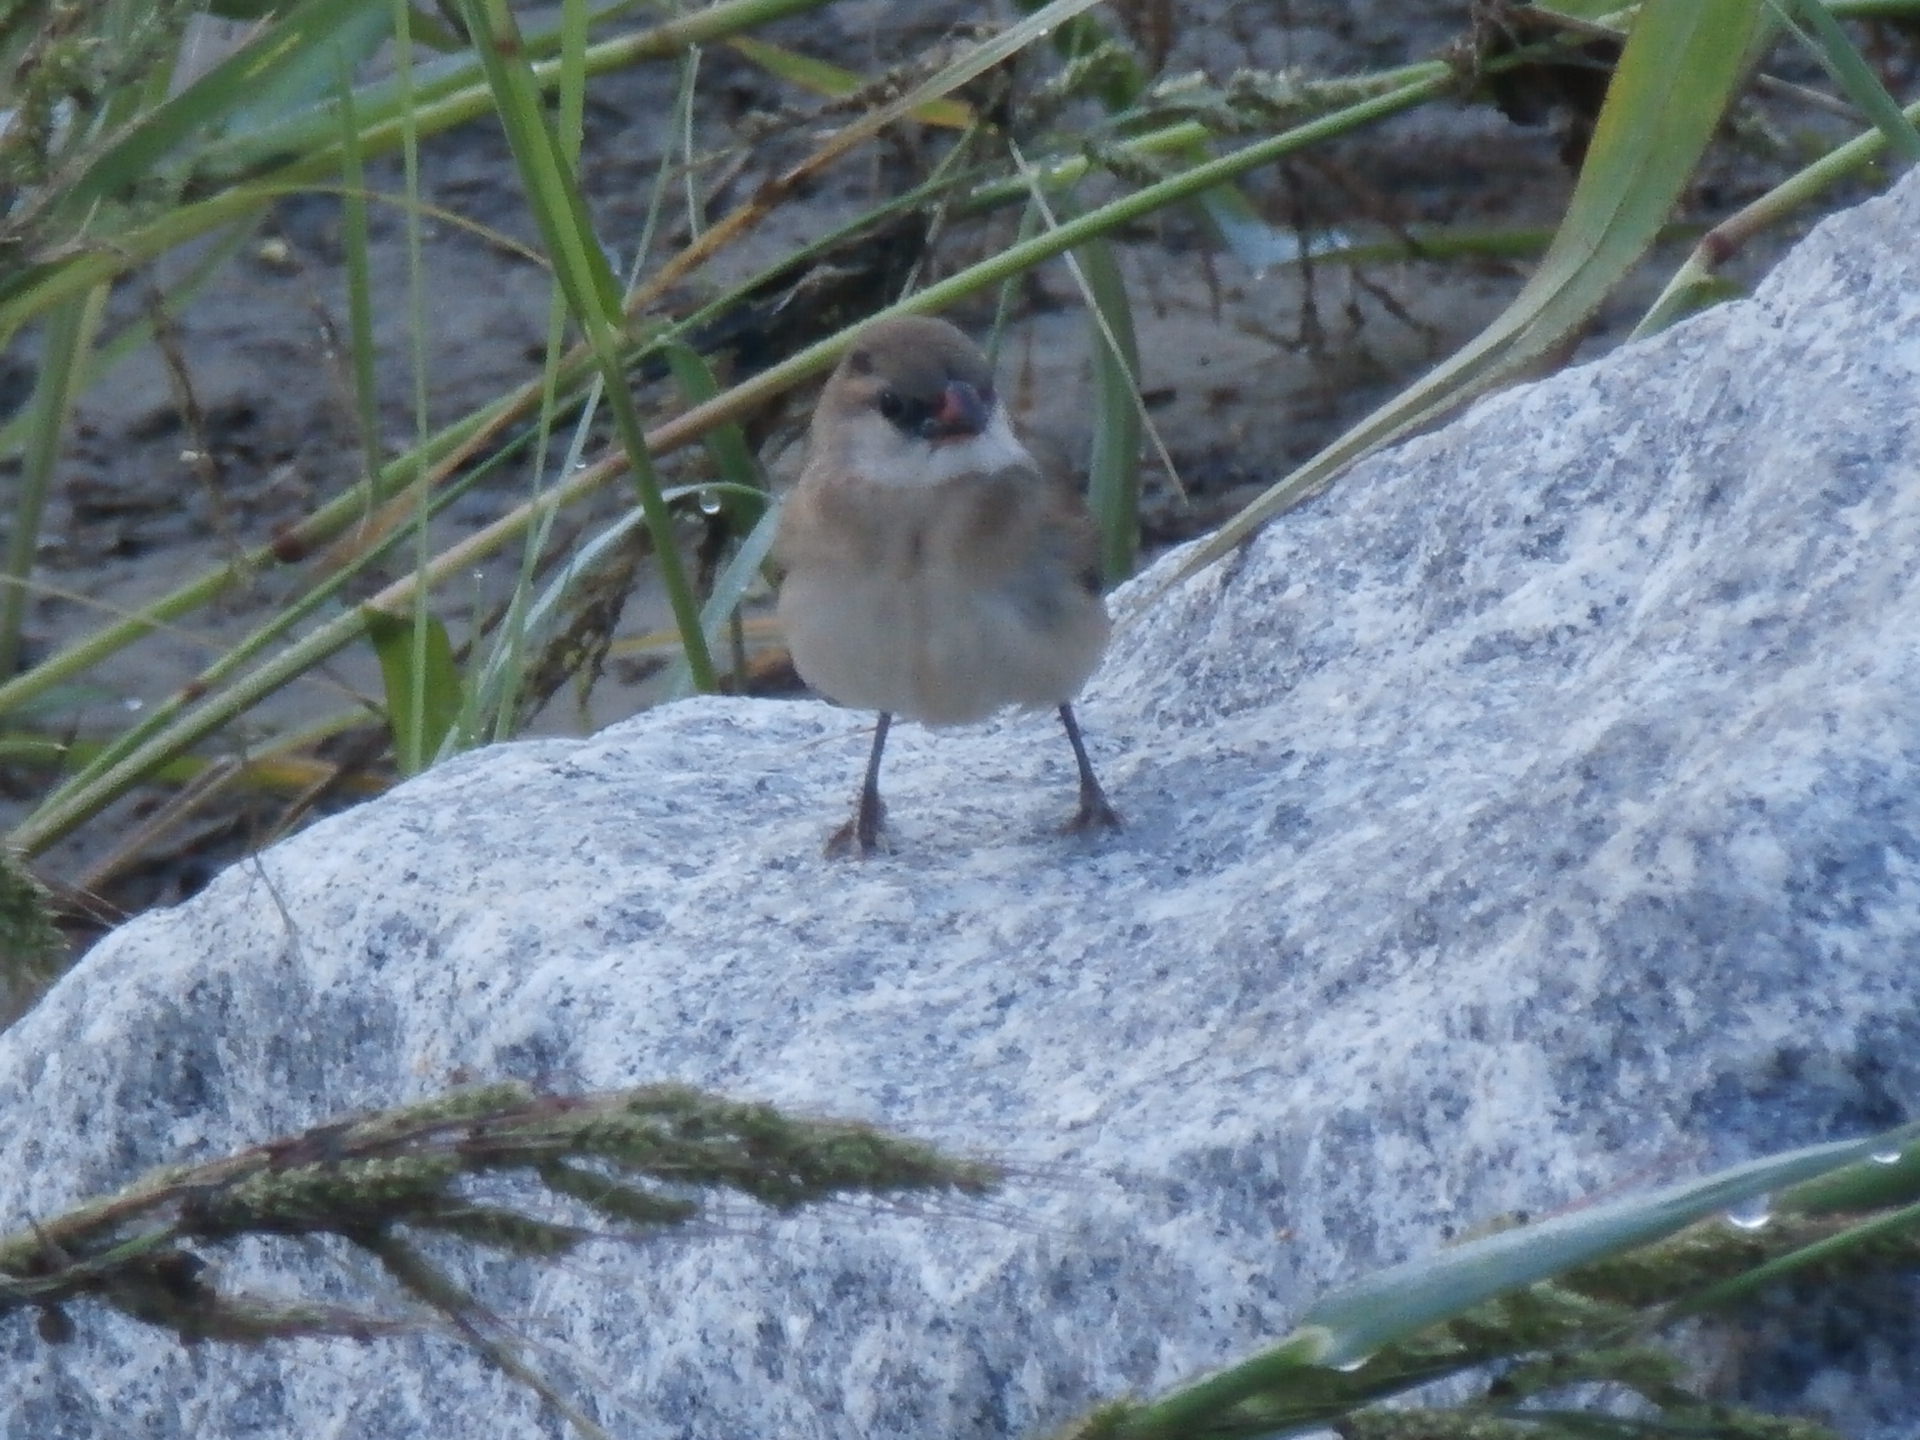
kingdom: Animalia
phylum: Chordata
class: Aves
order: Passeriformes
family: Viduidae
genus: Vidua
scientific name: Vidua macroura
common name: Pin-tailed whydah
